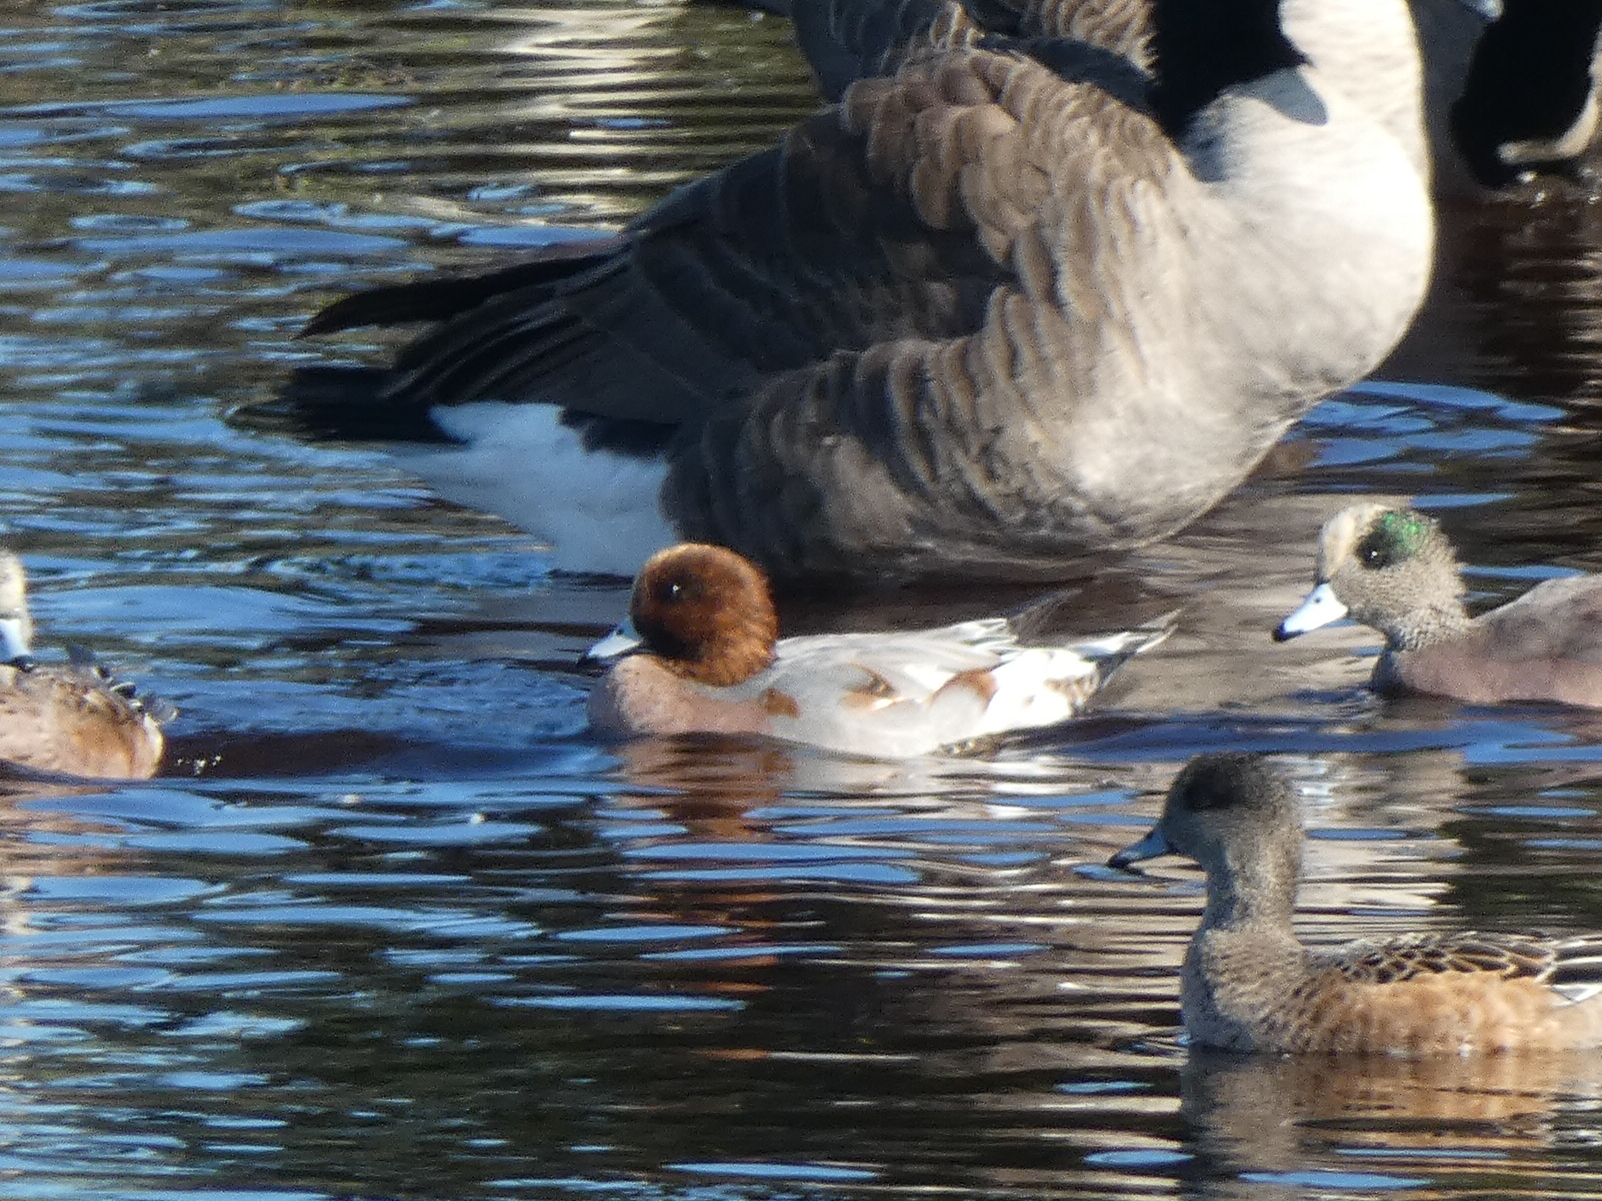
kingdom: Animalia
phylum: Chordata
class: Aves
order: Anseriformes
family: Anatidae
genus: Mareca
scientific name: Mareca penelope
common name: Eurasian wigeon
